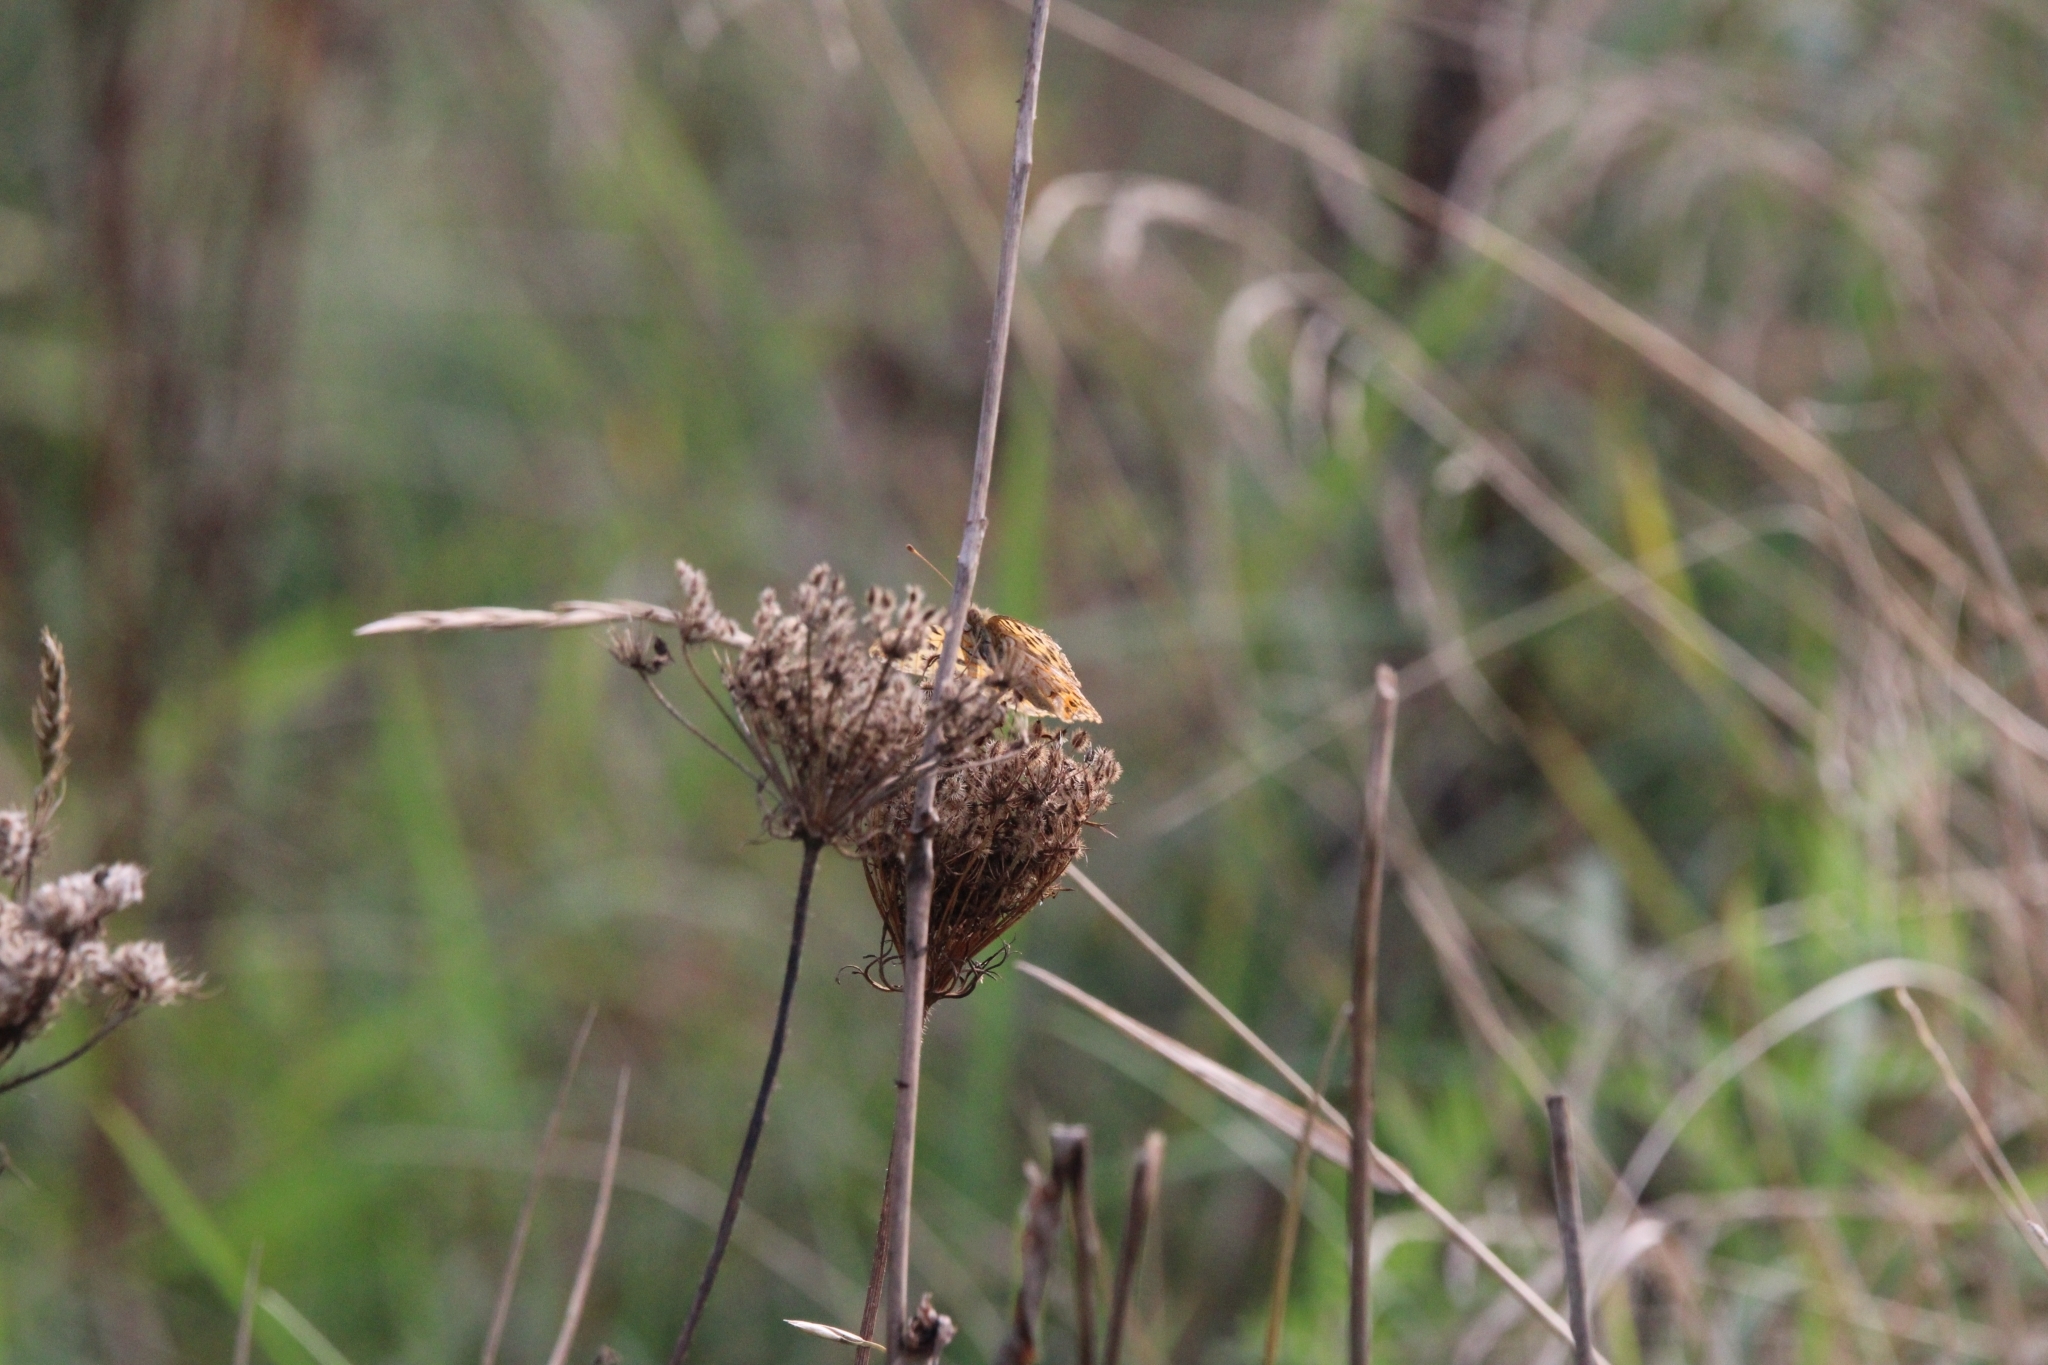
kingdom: Animalia
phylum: Arthropoda
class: Insecta
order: Lepidoptera
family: Nymphalidae
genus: Issoria
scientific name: Issoria lathonia
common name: Queen of spain fritillary
